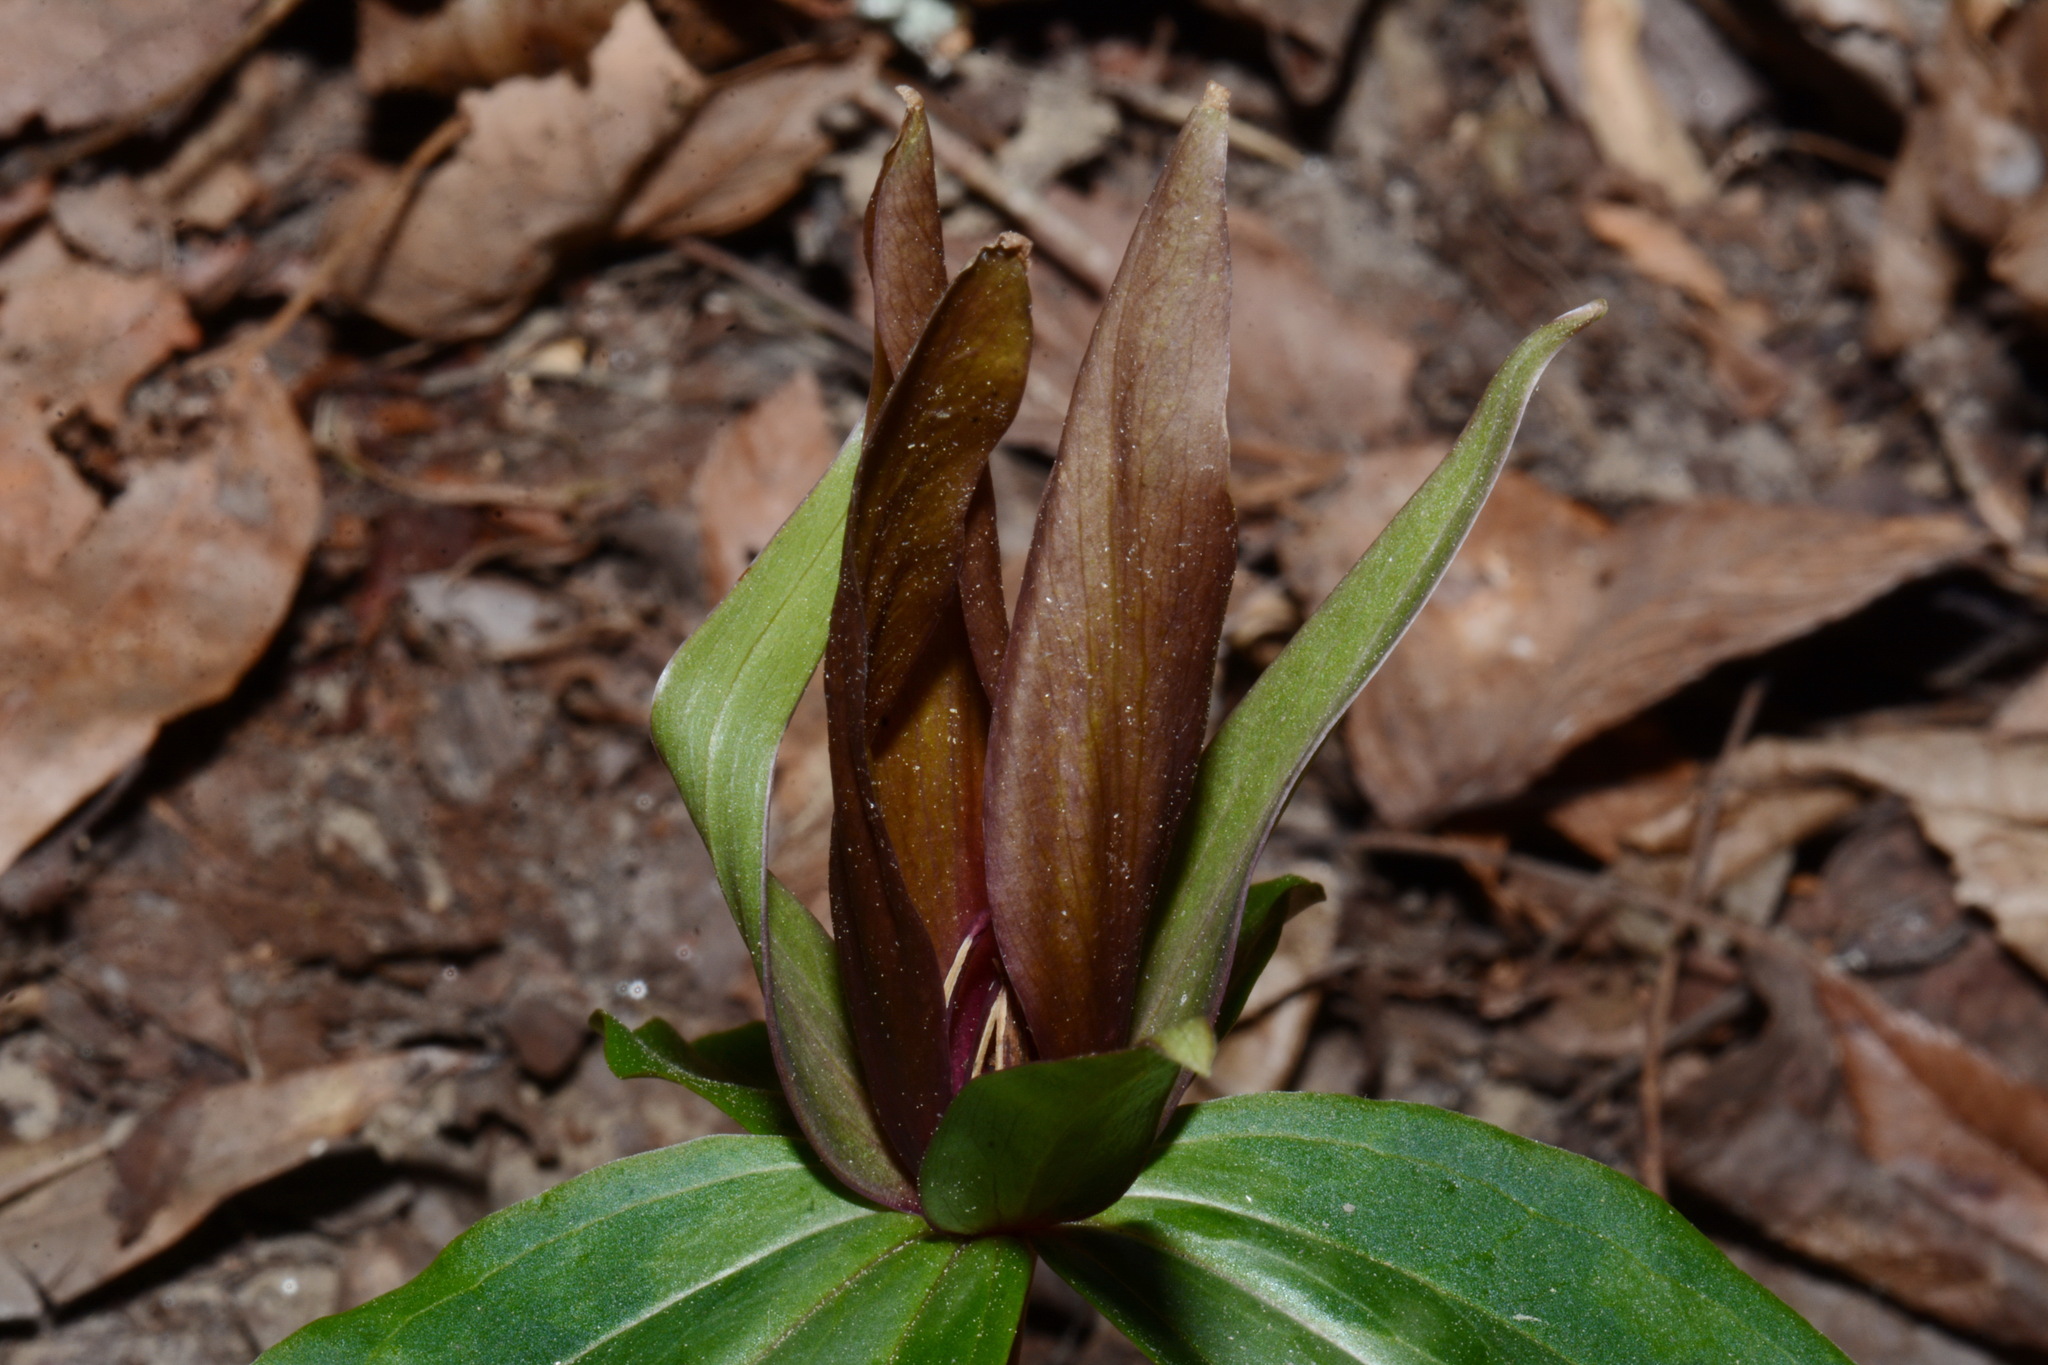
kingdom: Plantae
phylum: Tracheophyta
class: Liliopsida
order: Liliales
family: Melanthiaceae
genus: Trillium
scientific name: Trillium decipiens
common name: Chattahoochee river trillium
